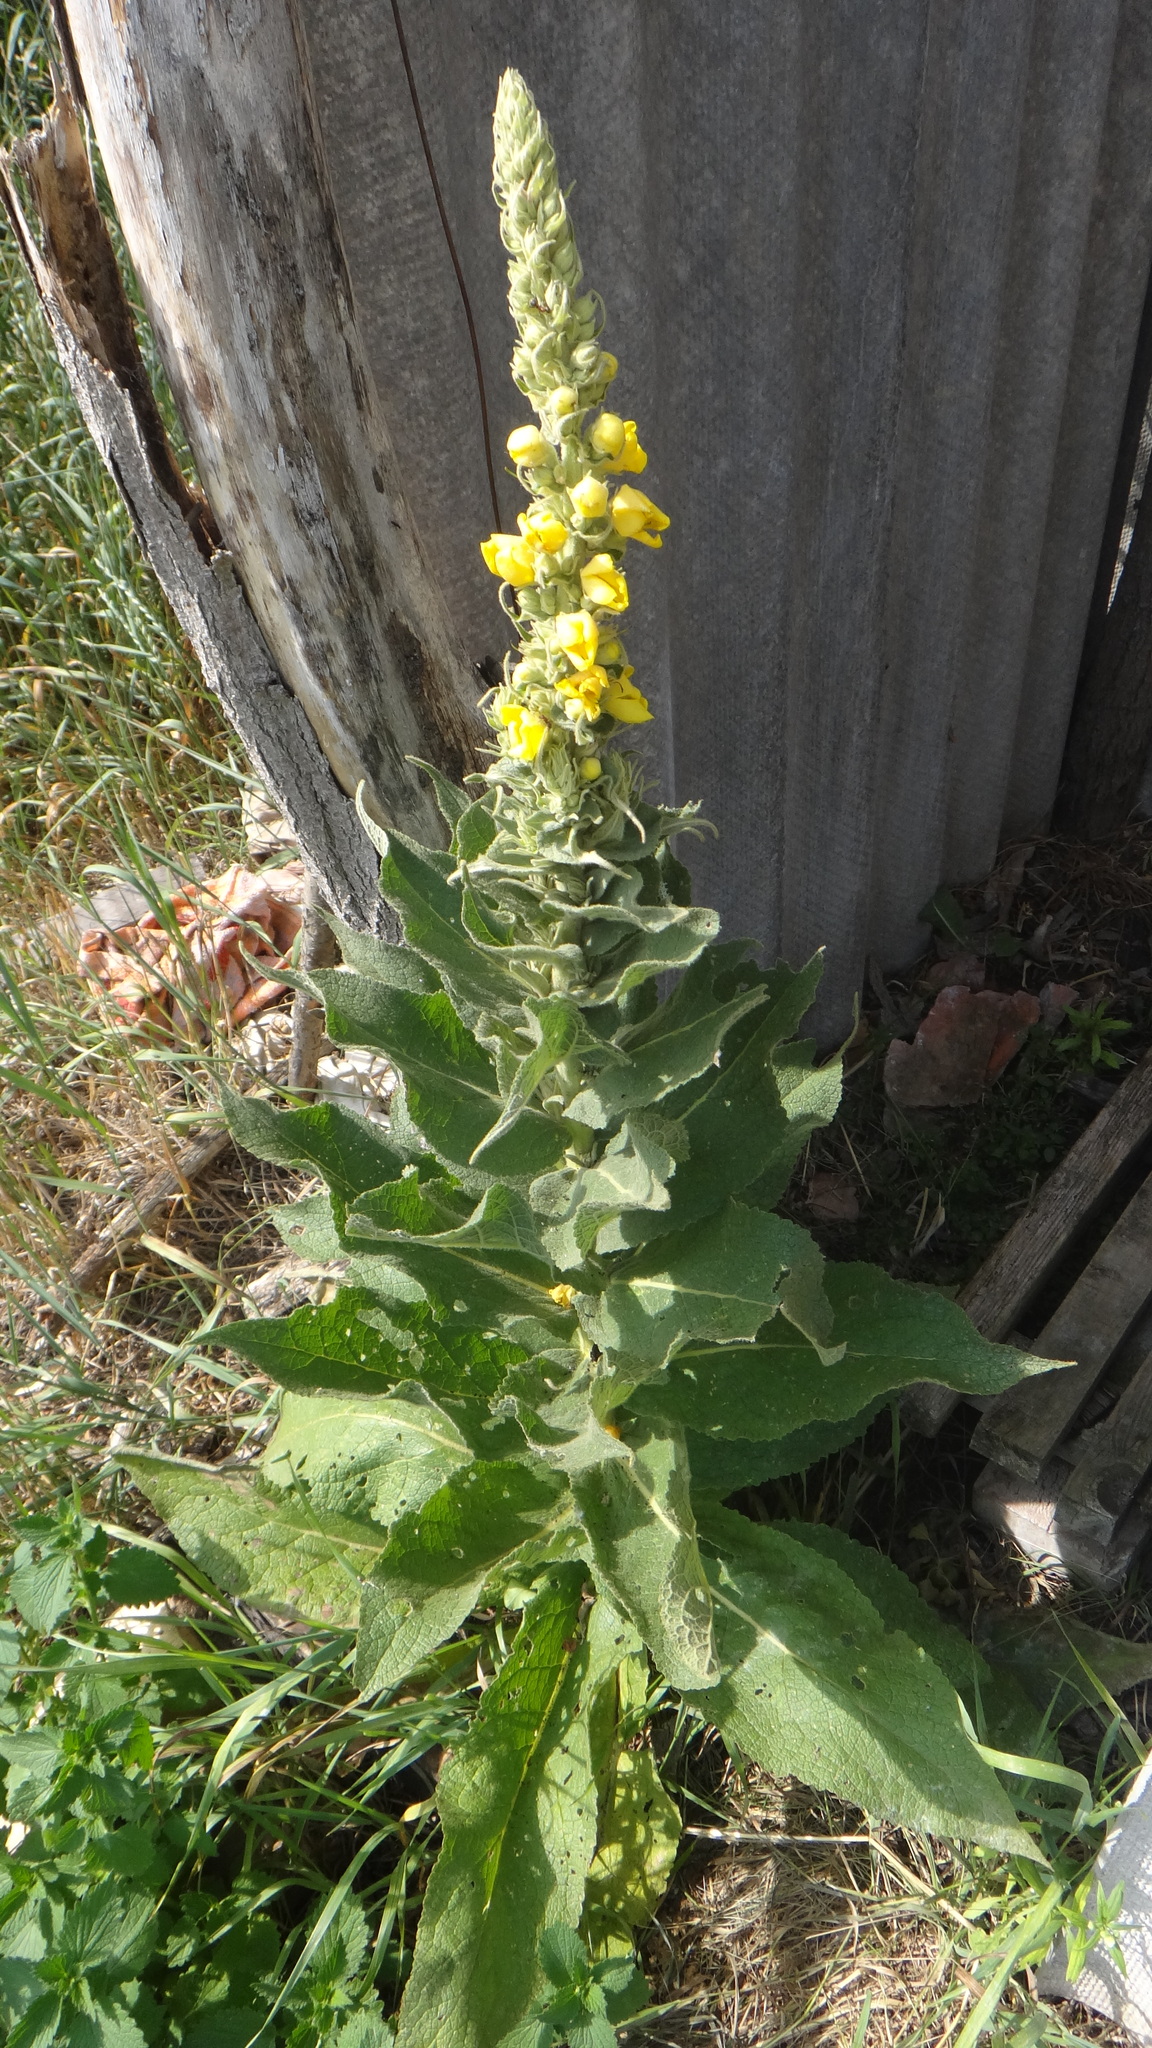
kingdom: Plantae
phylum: Tracheophyta
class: Magnoliopsida
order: Lamiales
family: Scrophulariaceae
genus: Verbascum
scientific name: Verbascum phlomoides
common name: Orange mullein
